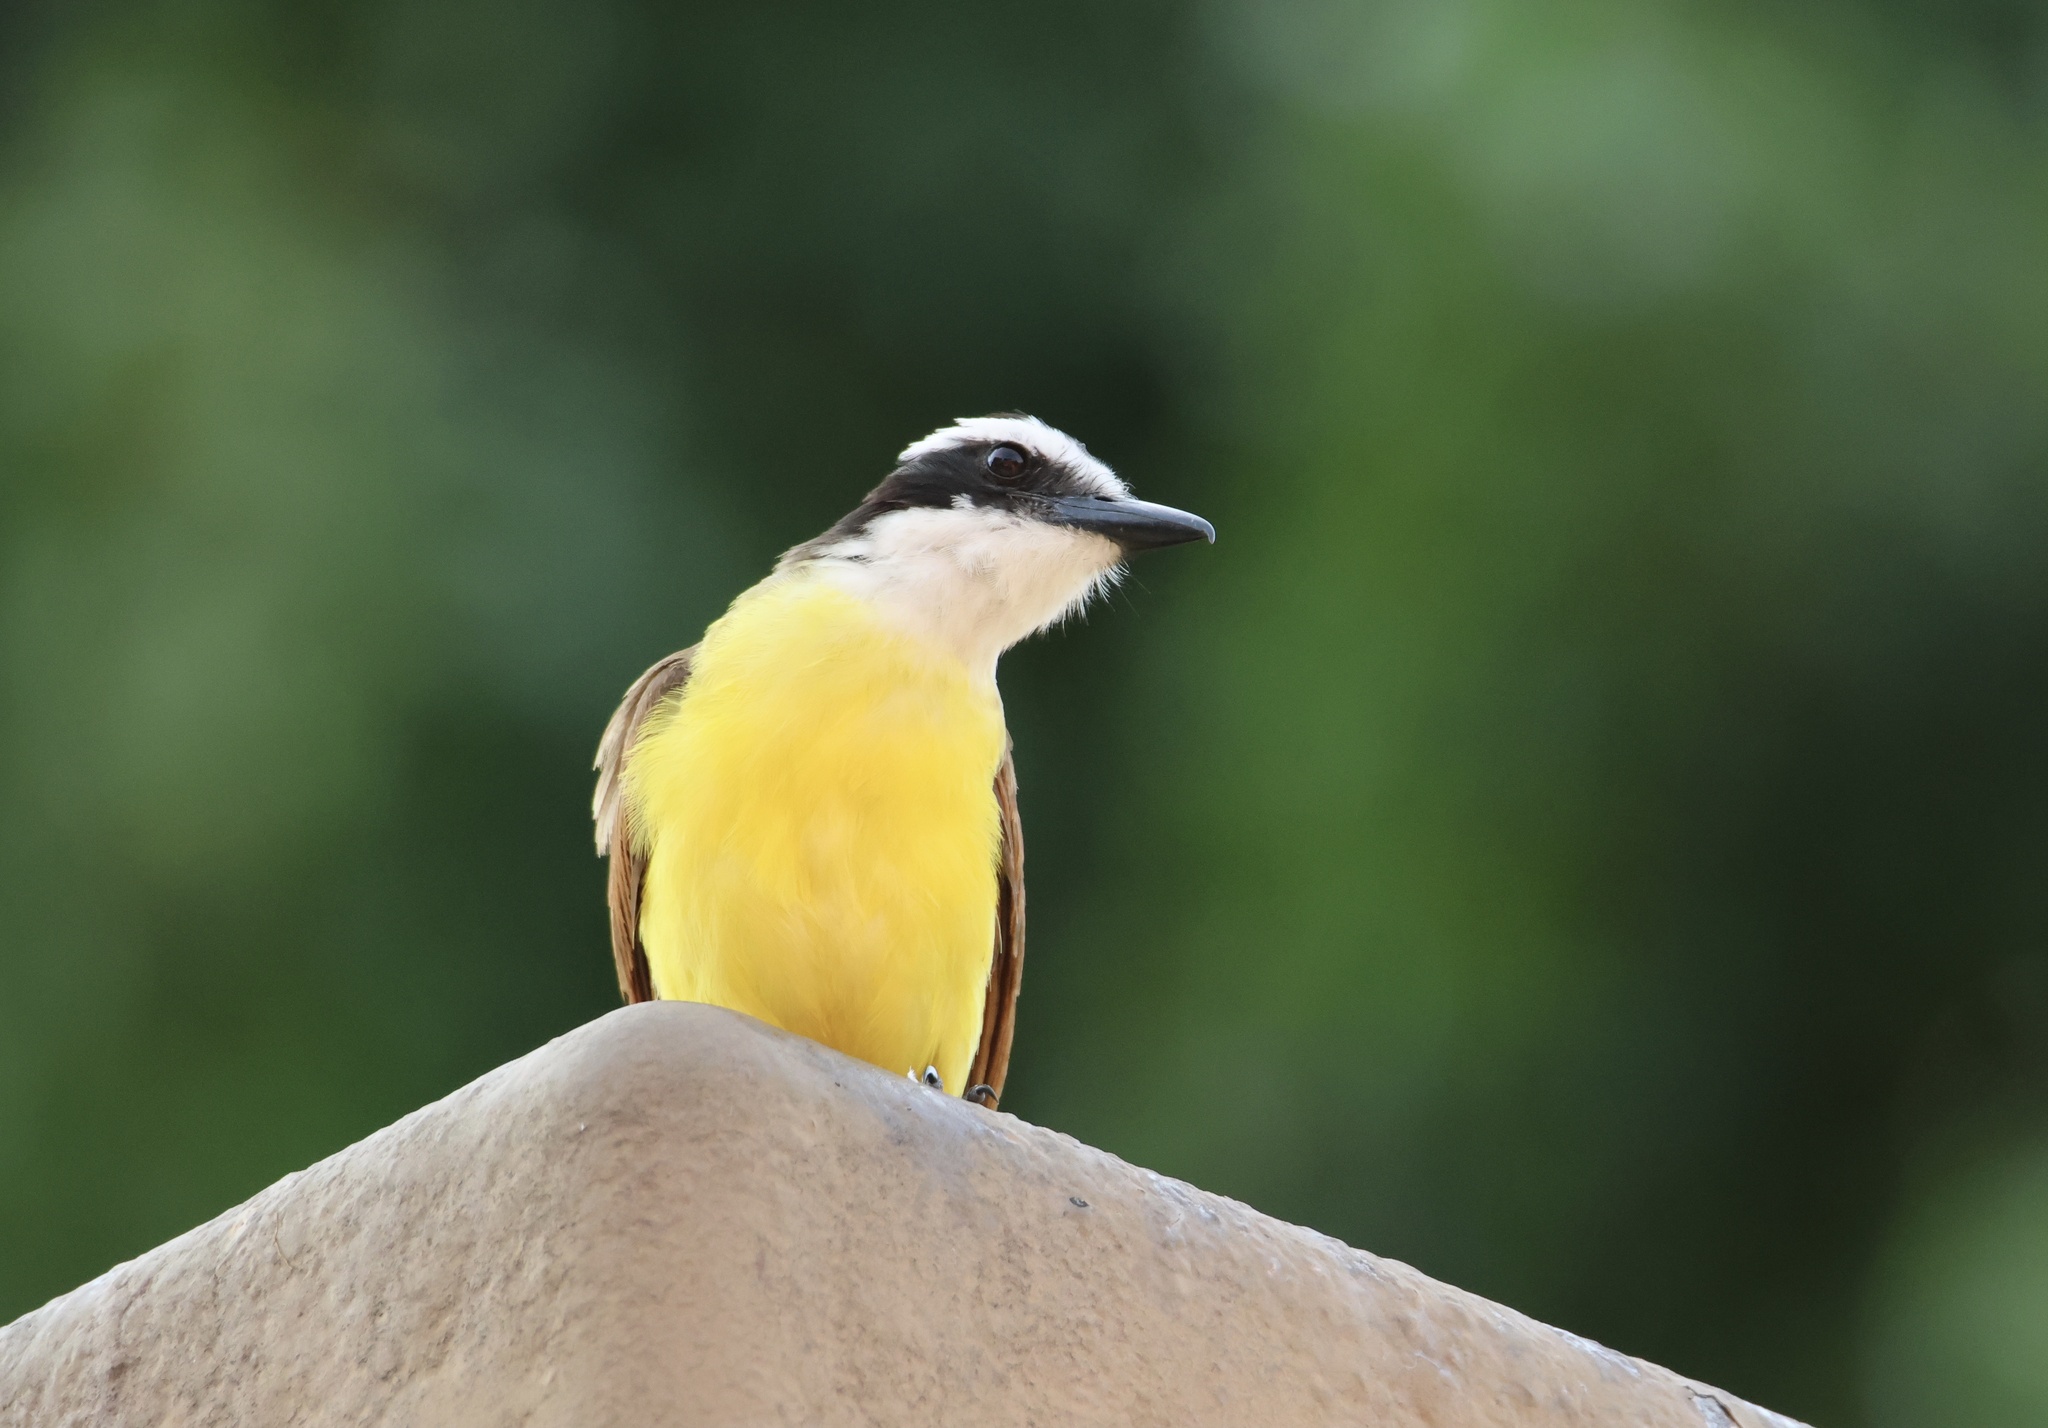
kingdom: Animalia
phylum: Chordata
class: Aves
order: Passeriformes
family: Tyrannidae
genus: Pitangus
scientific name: Pitangus sulphuratus
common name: Great kiskadee
